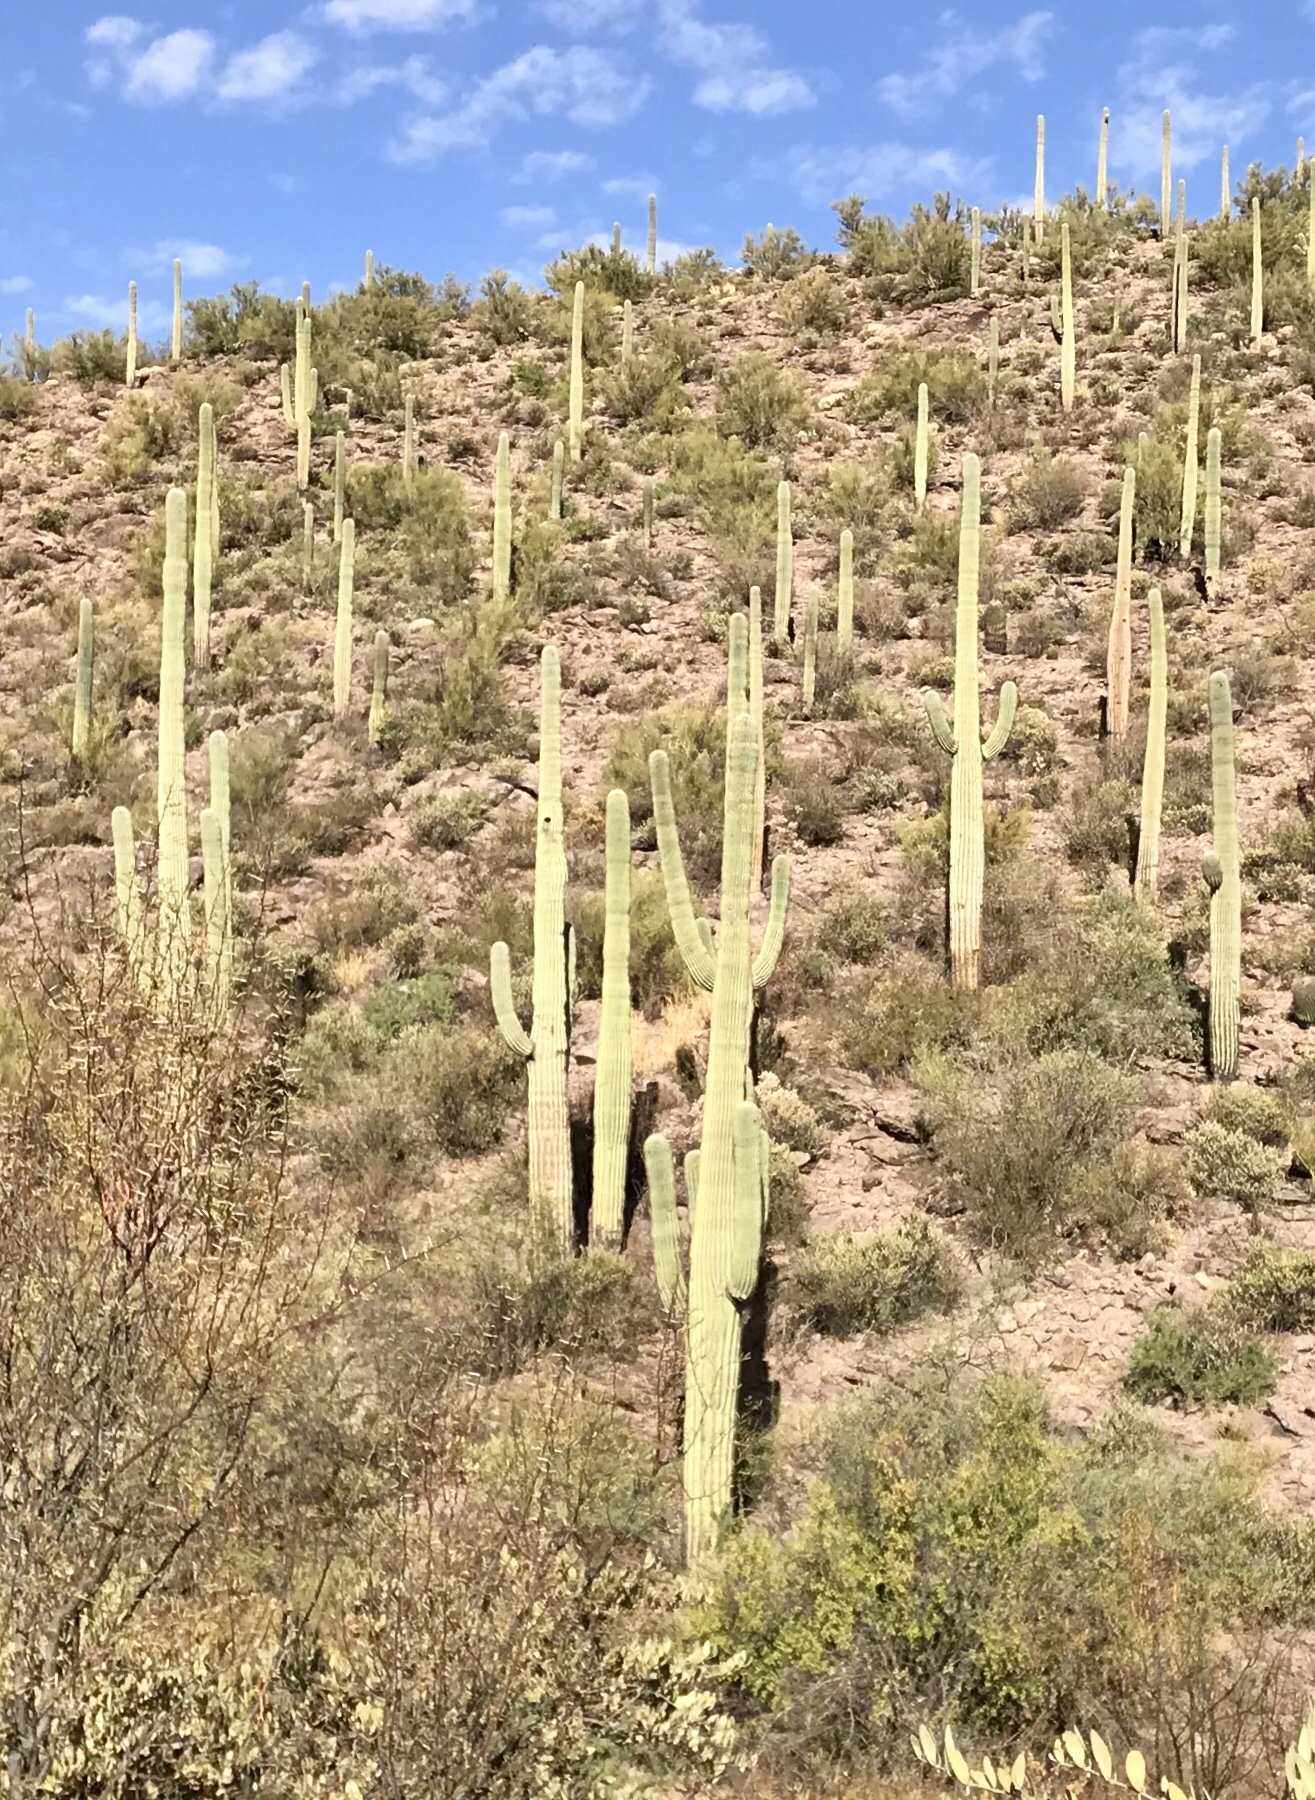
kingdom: Plantae
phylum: Tracheophyta
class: Magnoliopsida
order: Caryophyllales
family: Cactaceae
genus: Carnegiea
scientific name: Carnegiea gigantea
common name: Saguaro
